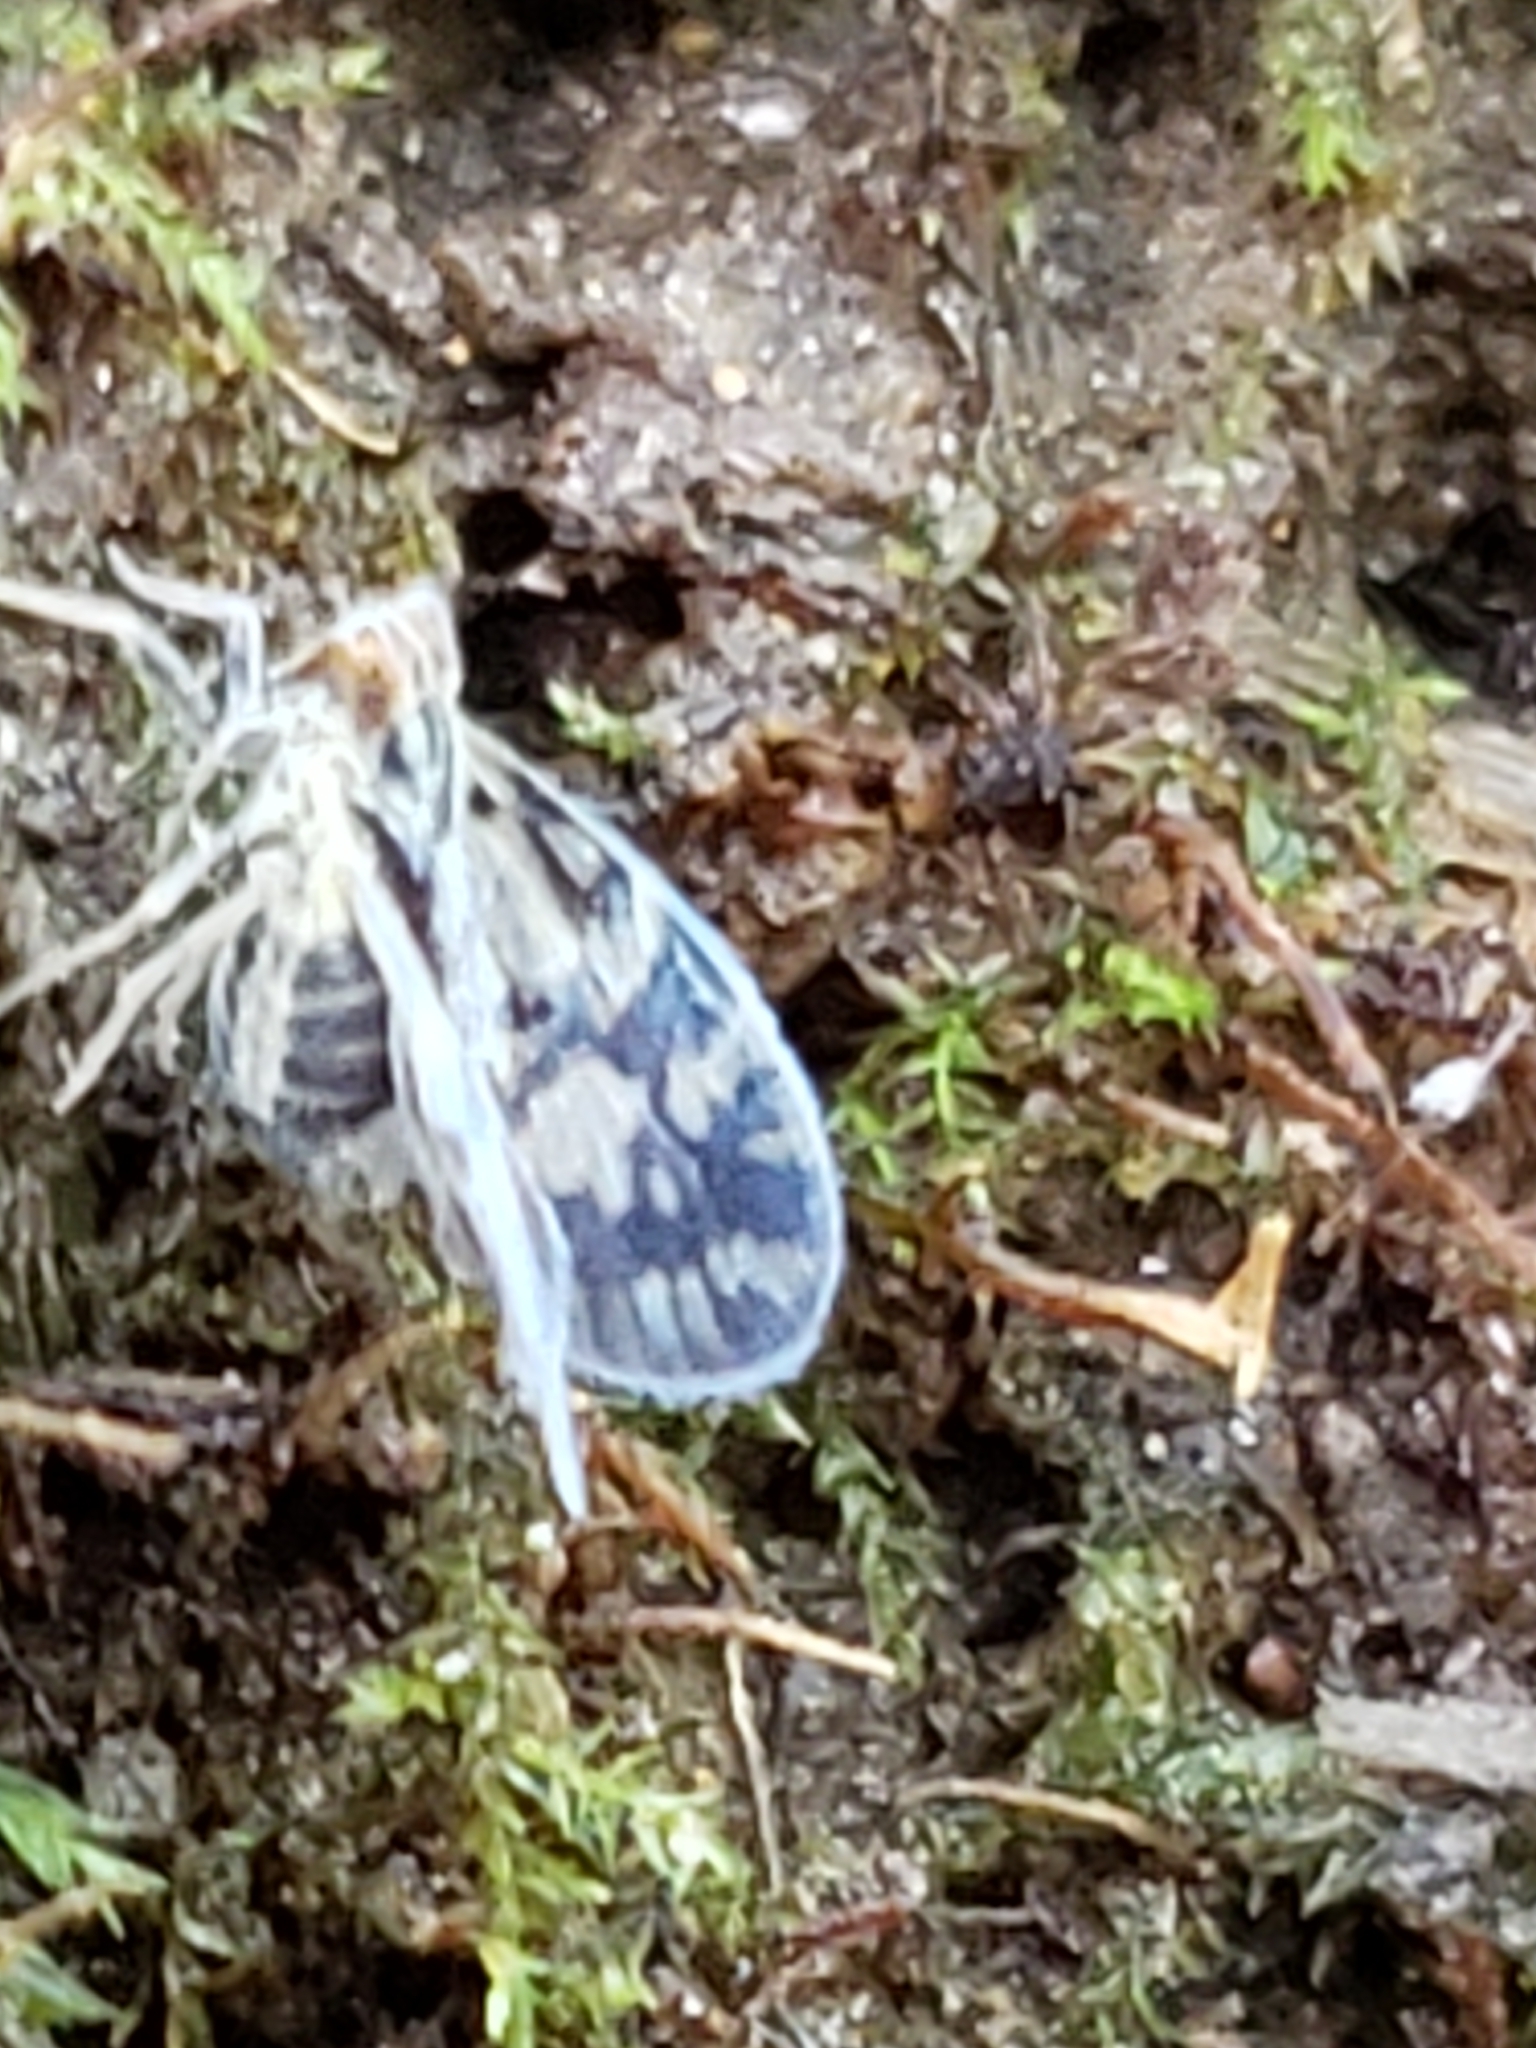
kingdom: Animalia
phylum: Arthropoda
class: Insecta
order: Hemiptera
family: Cixiidae
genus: Bothriocera
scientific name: Bothriocera cognita
